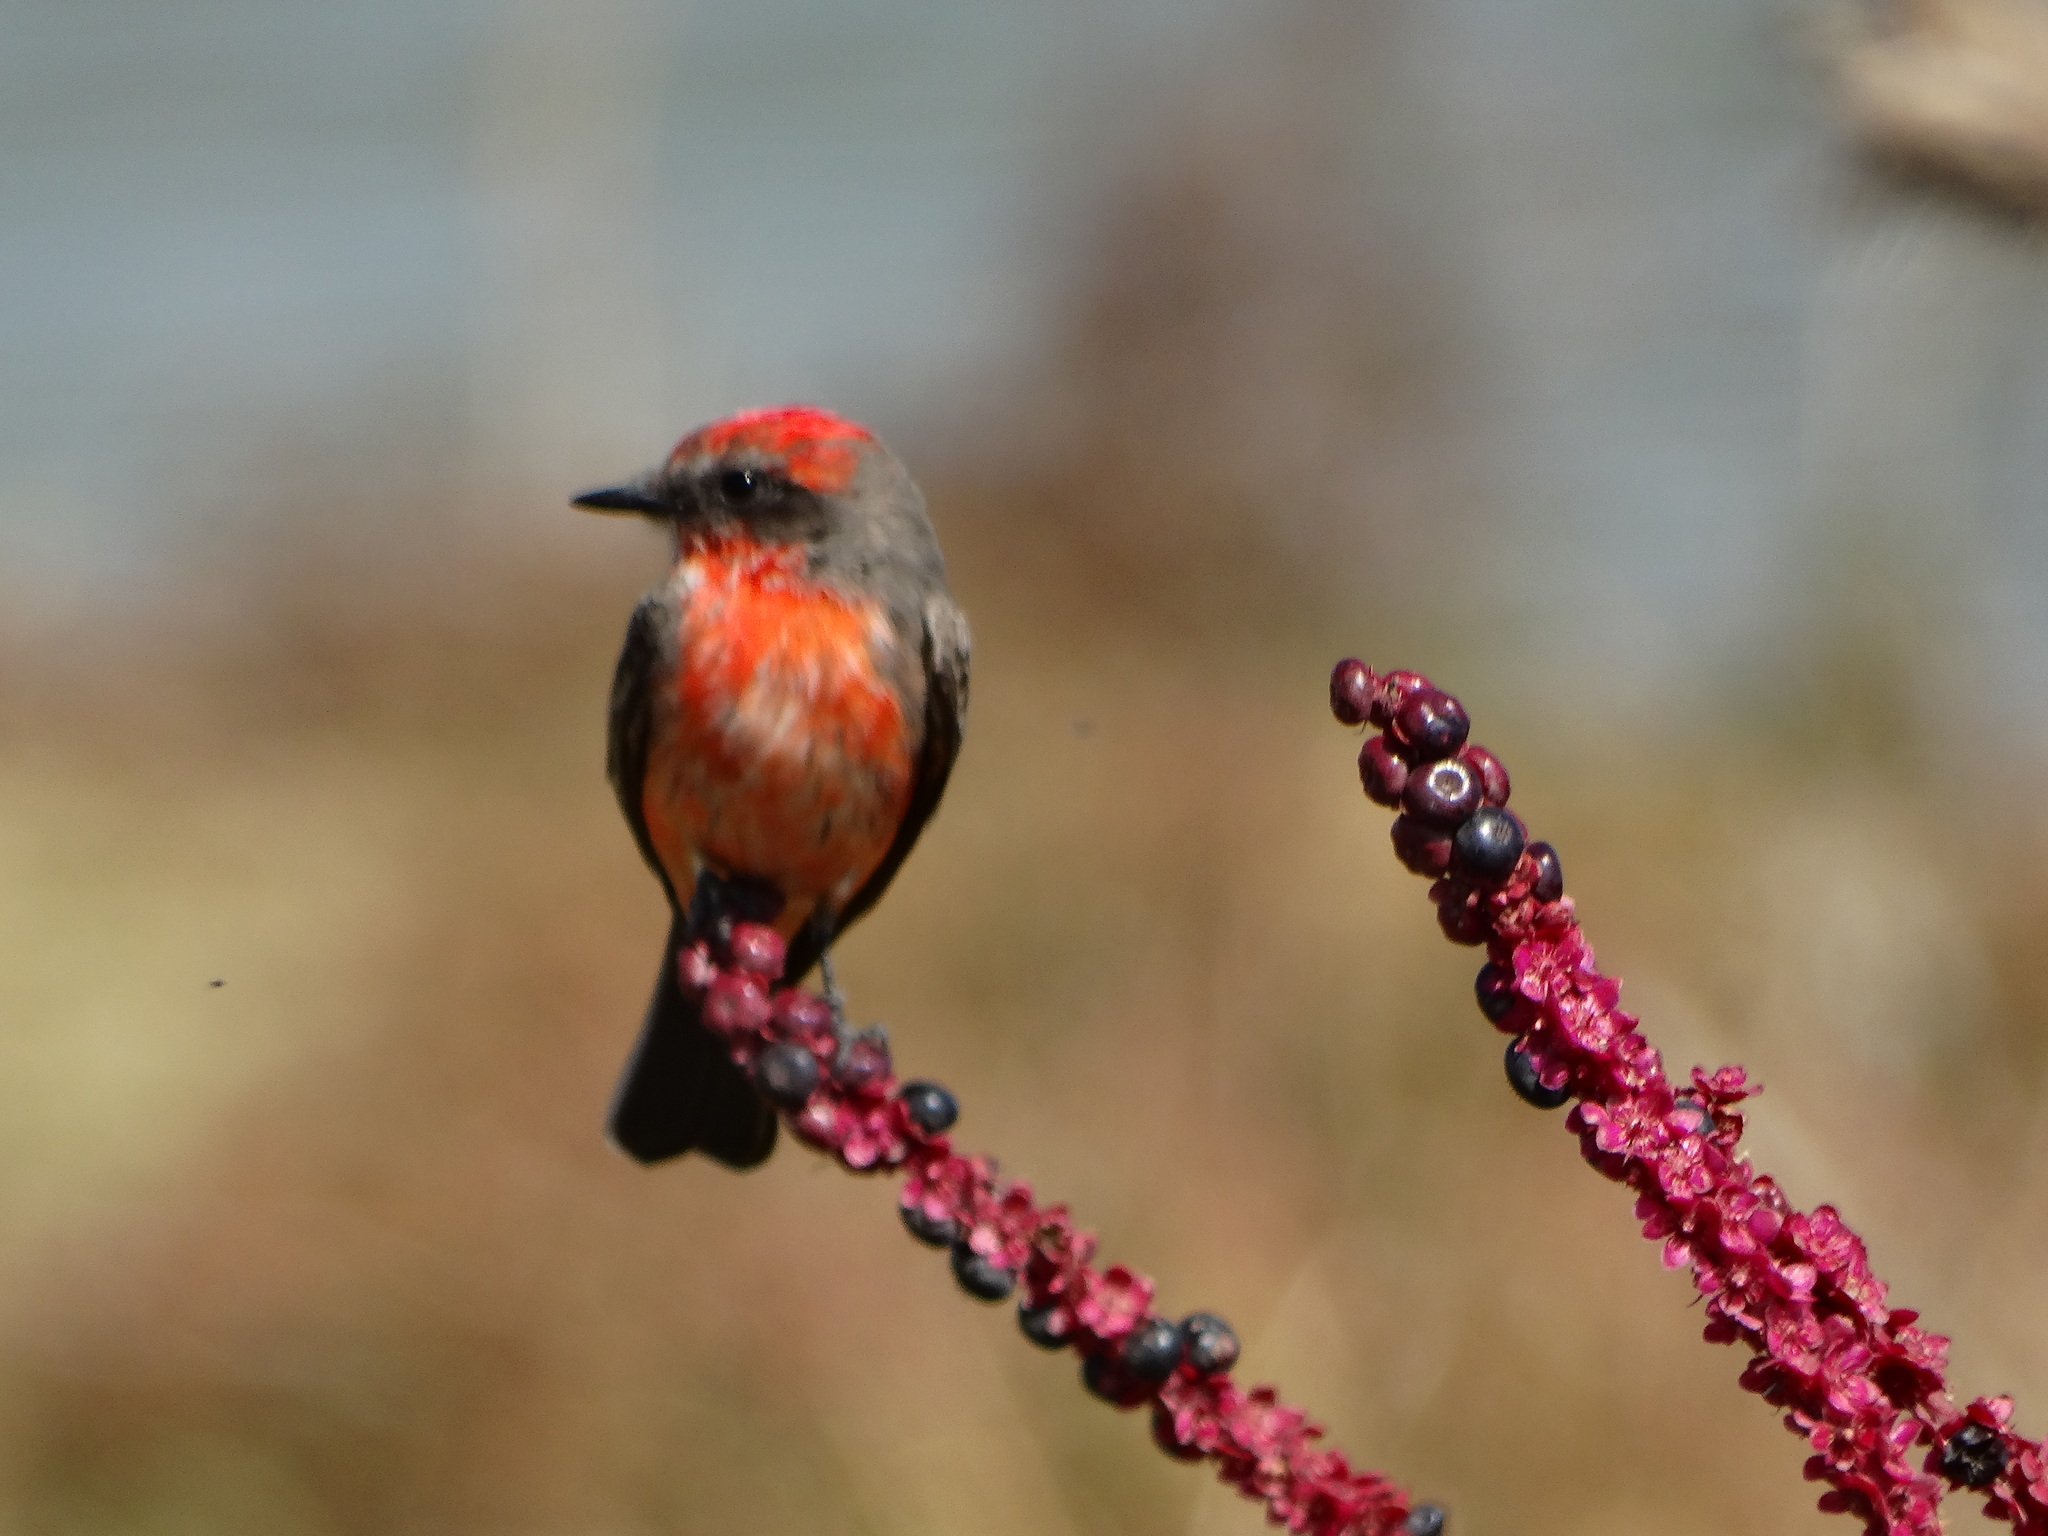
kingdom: Animalia
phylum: Chordata
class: Aves
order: Passeriformes
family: Tyrannidae
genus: Pyrocephalus
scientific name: Pyrocephalus rubinus
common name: Vermilion flycatcher
